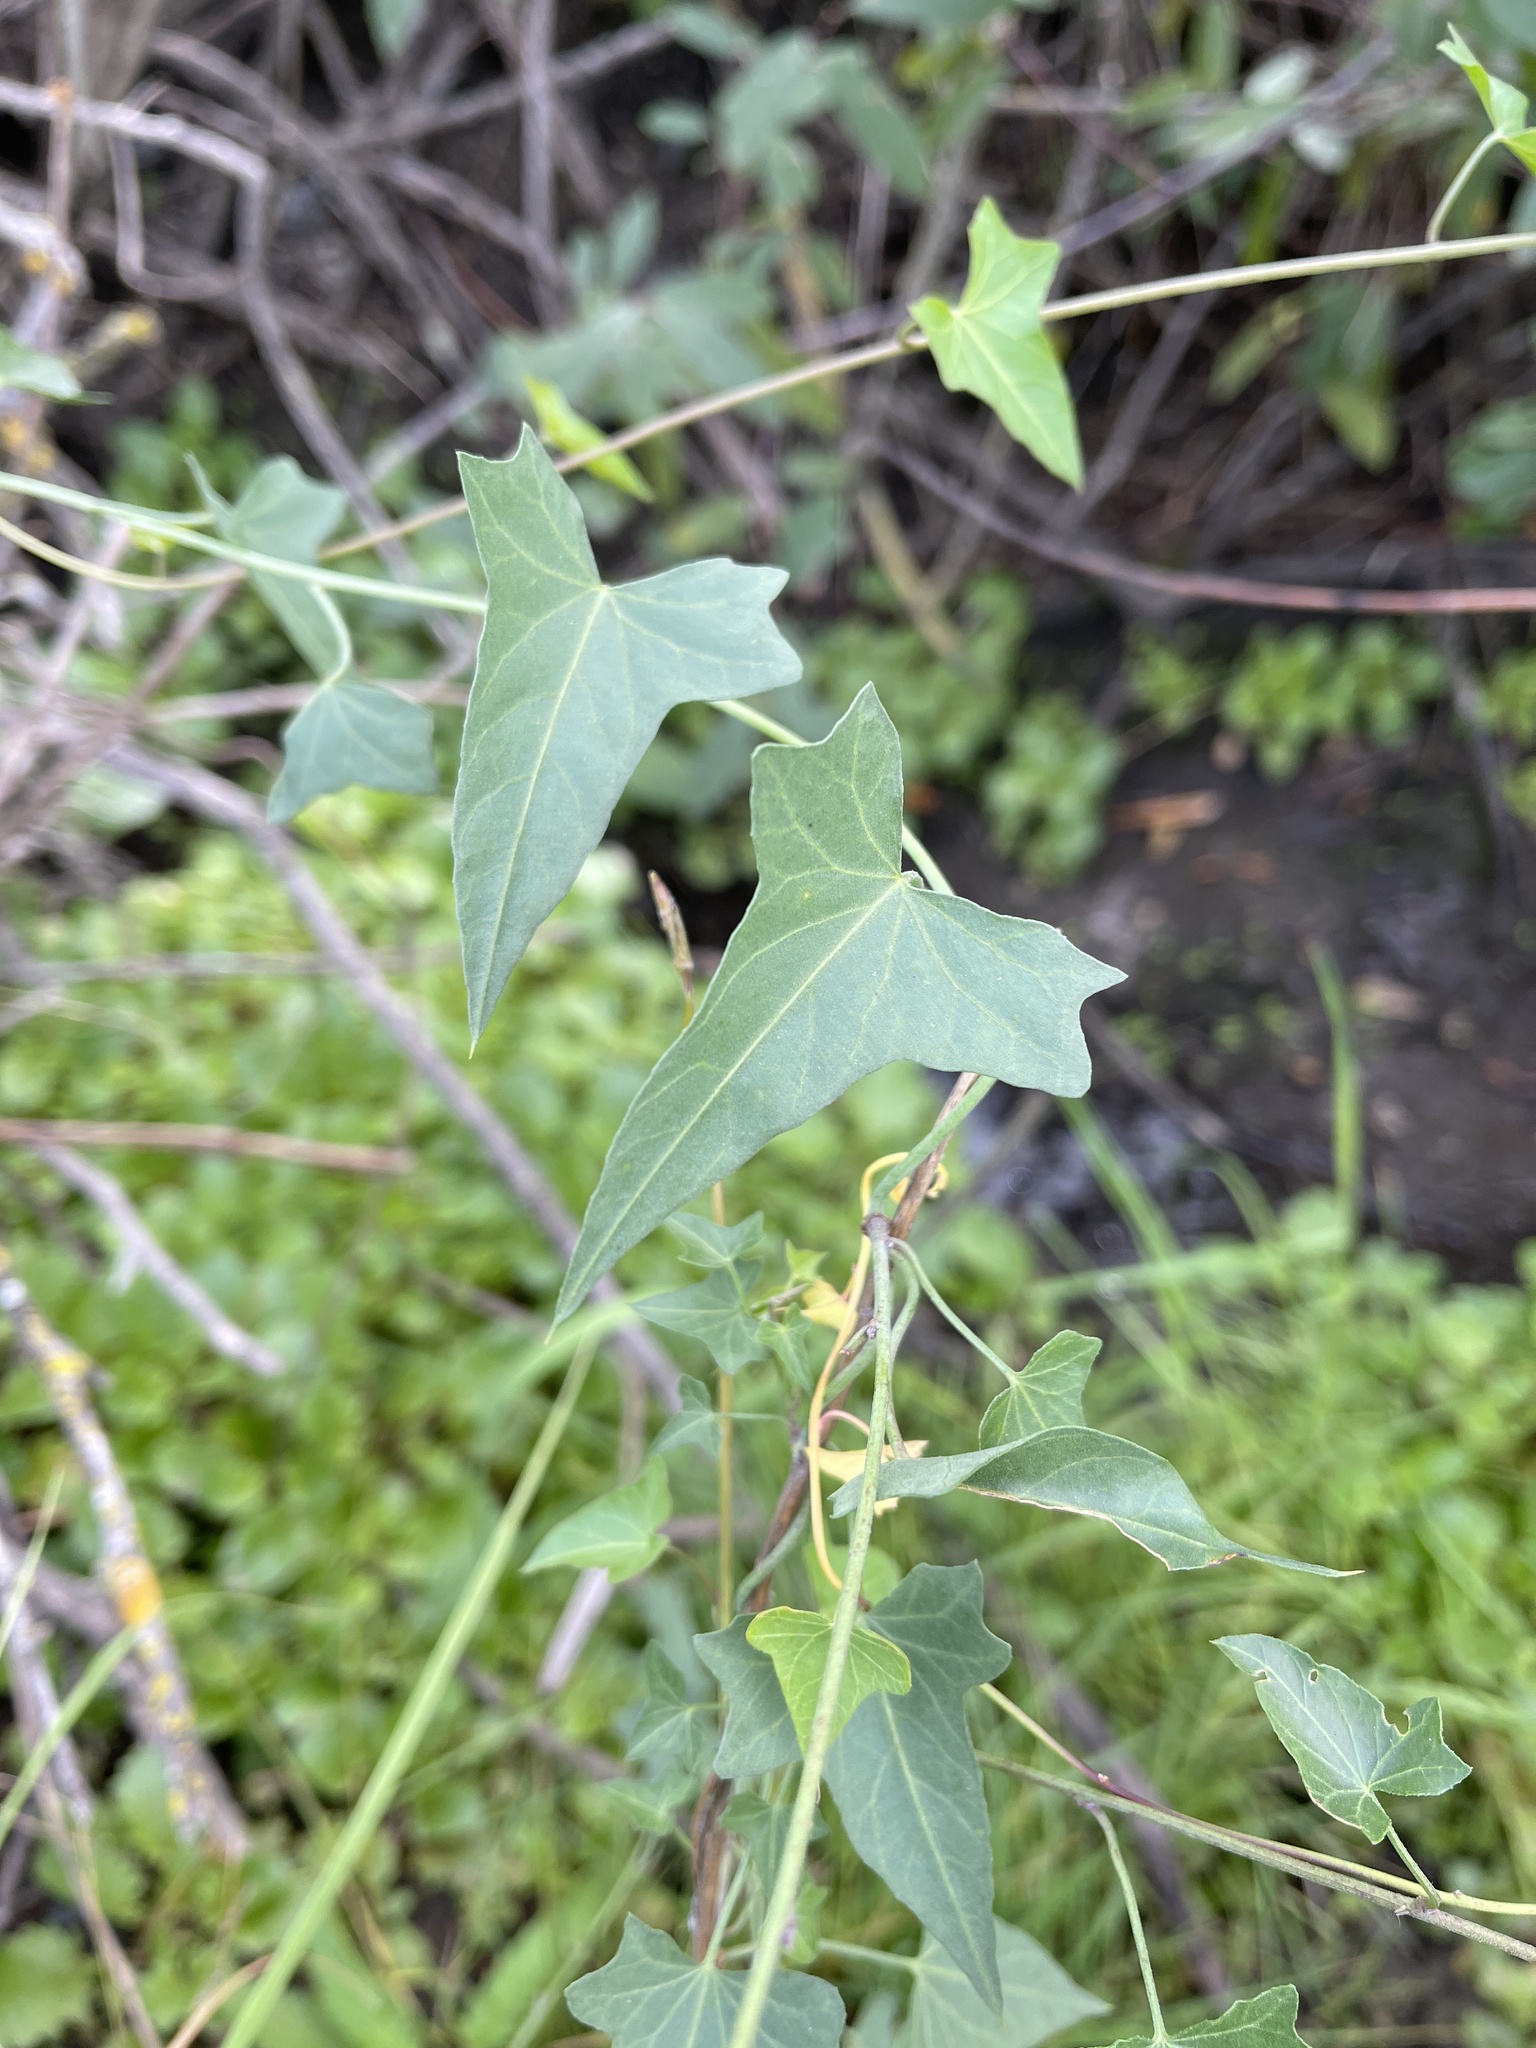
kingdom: Plantae
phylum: Tracheophyta
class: Magnoliopsida
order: Solanales
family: Convolvulaceae
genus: Calystegia
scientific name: Calystegia purpurata
